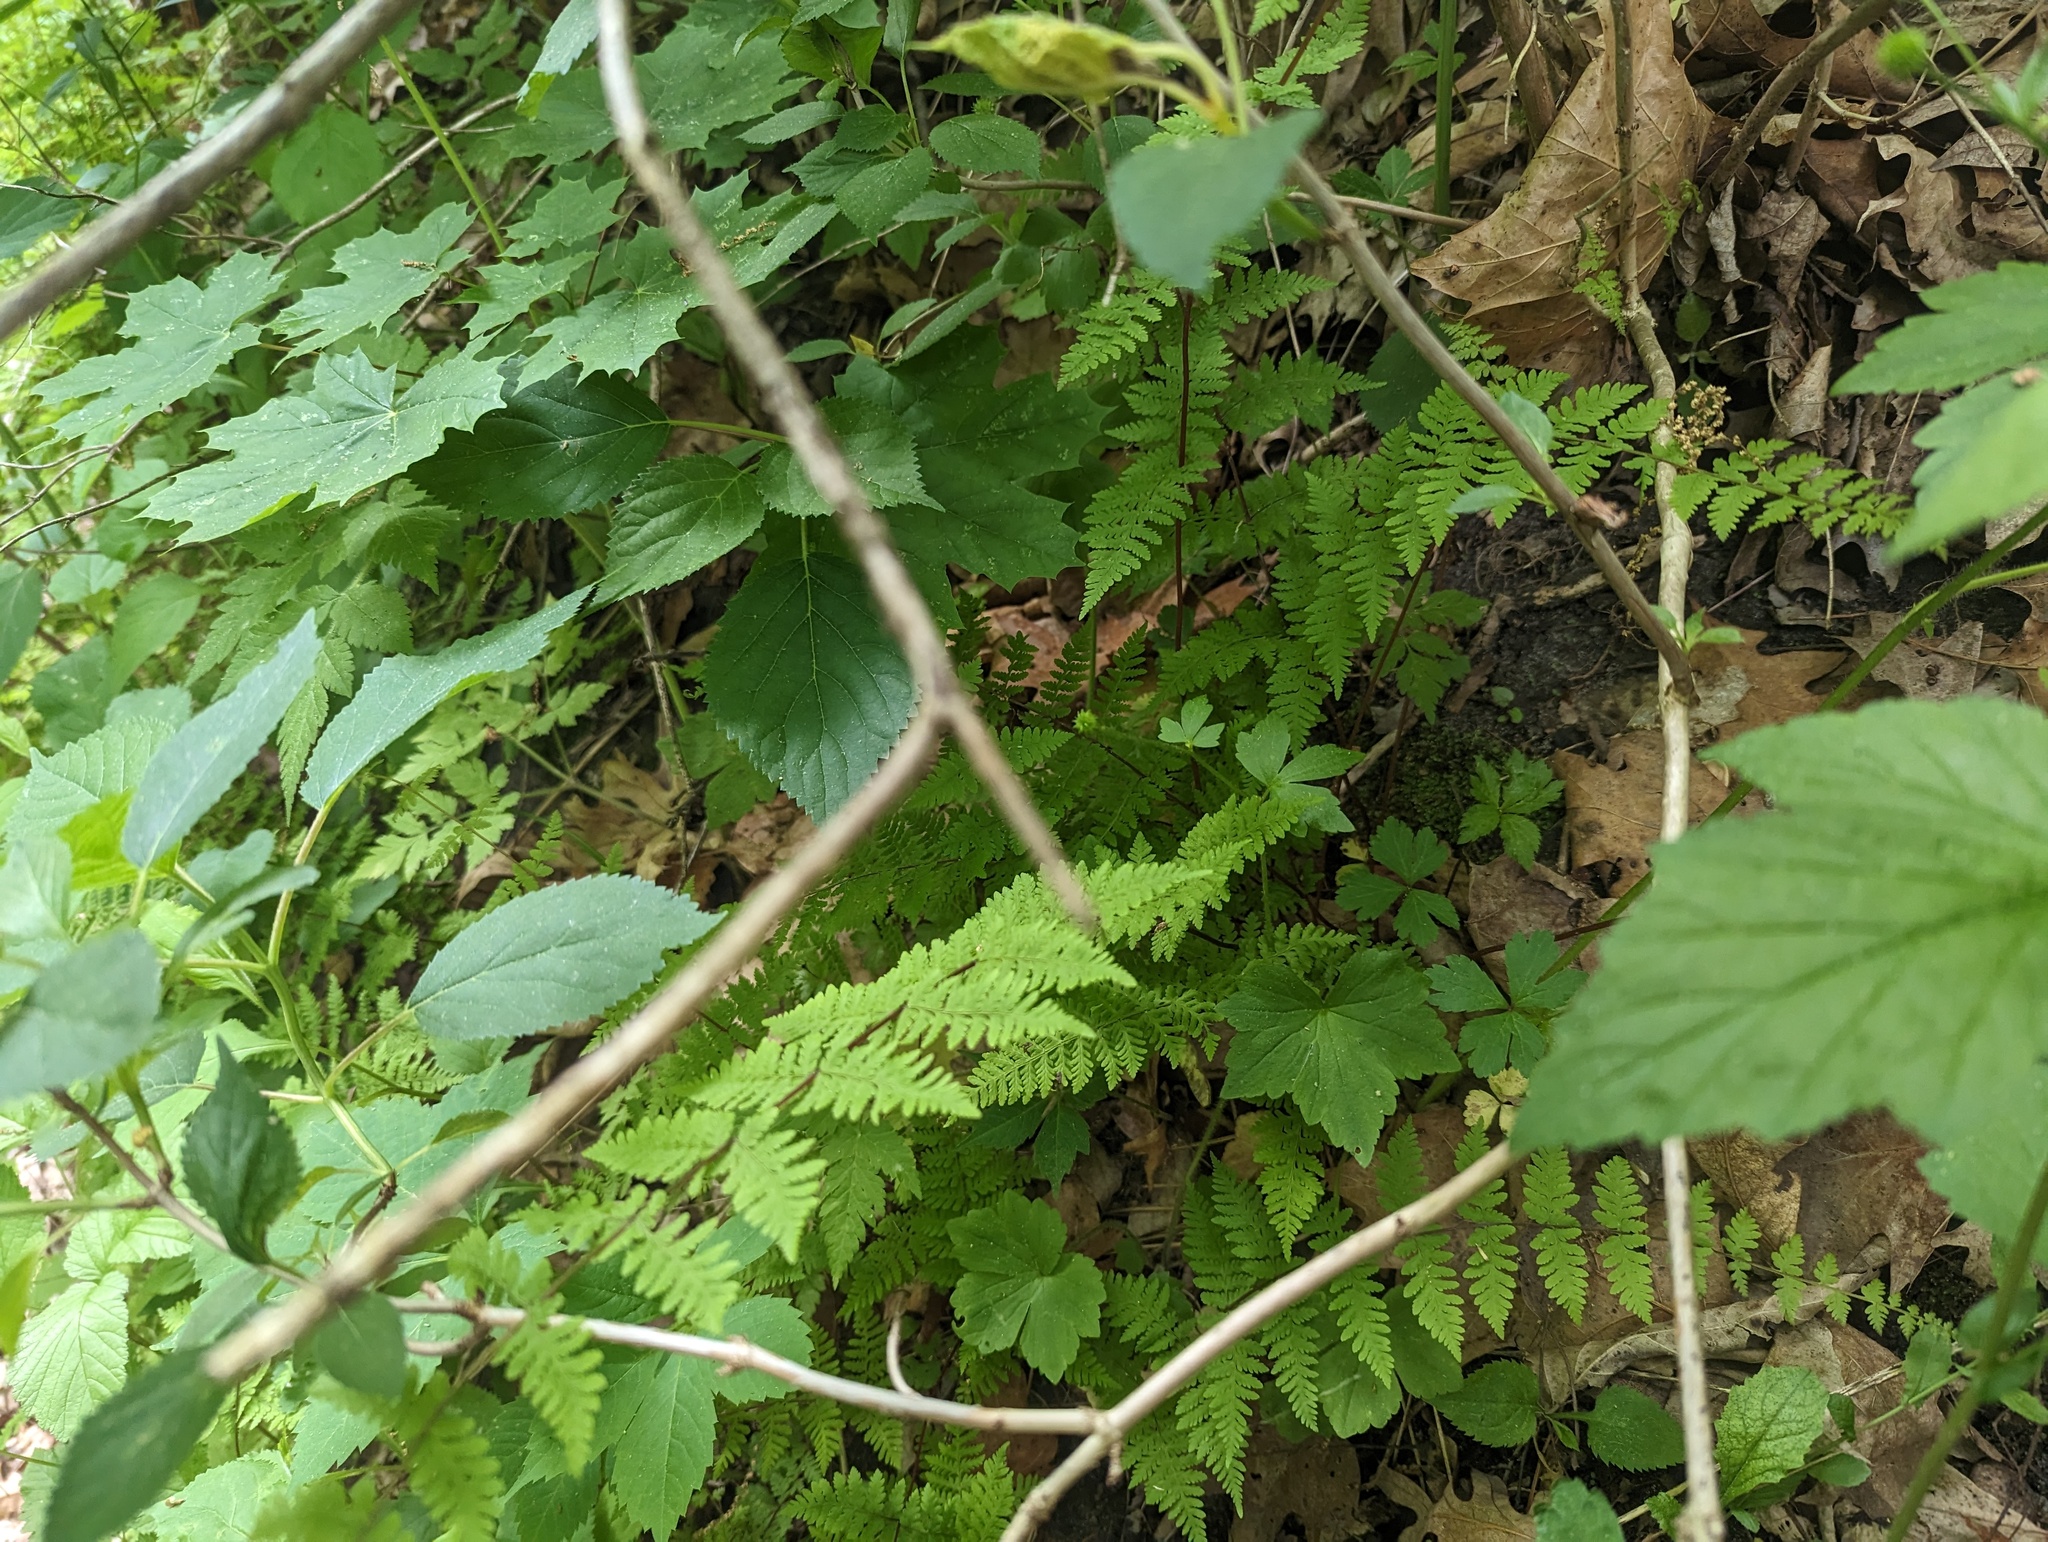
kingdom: Plantae
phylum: Tracheophyta
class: Polypodiopsida
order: Polypodiales
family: Cystopteridaceae
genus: Cystopteris
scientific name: Cystopteris bulbifera
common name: Bulblet bladder fern
